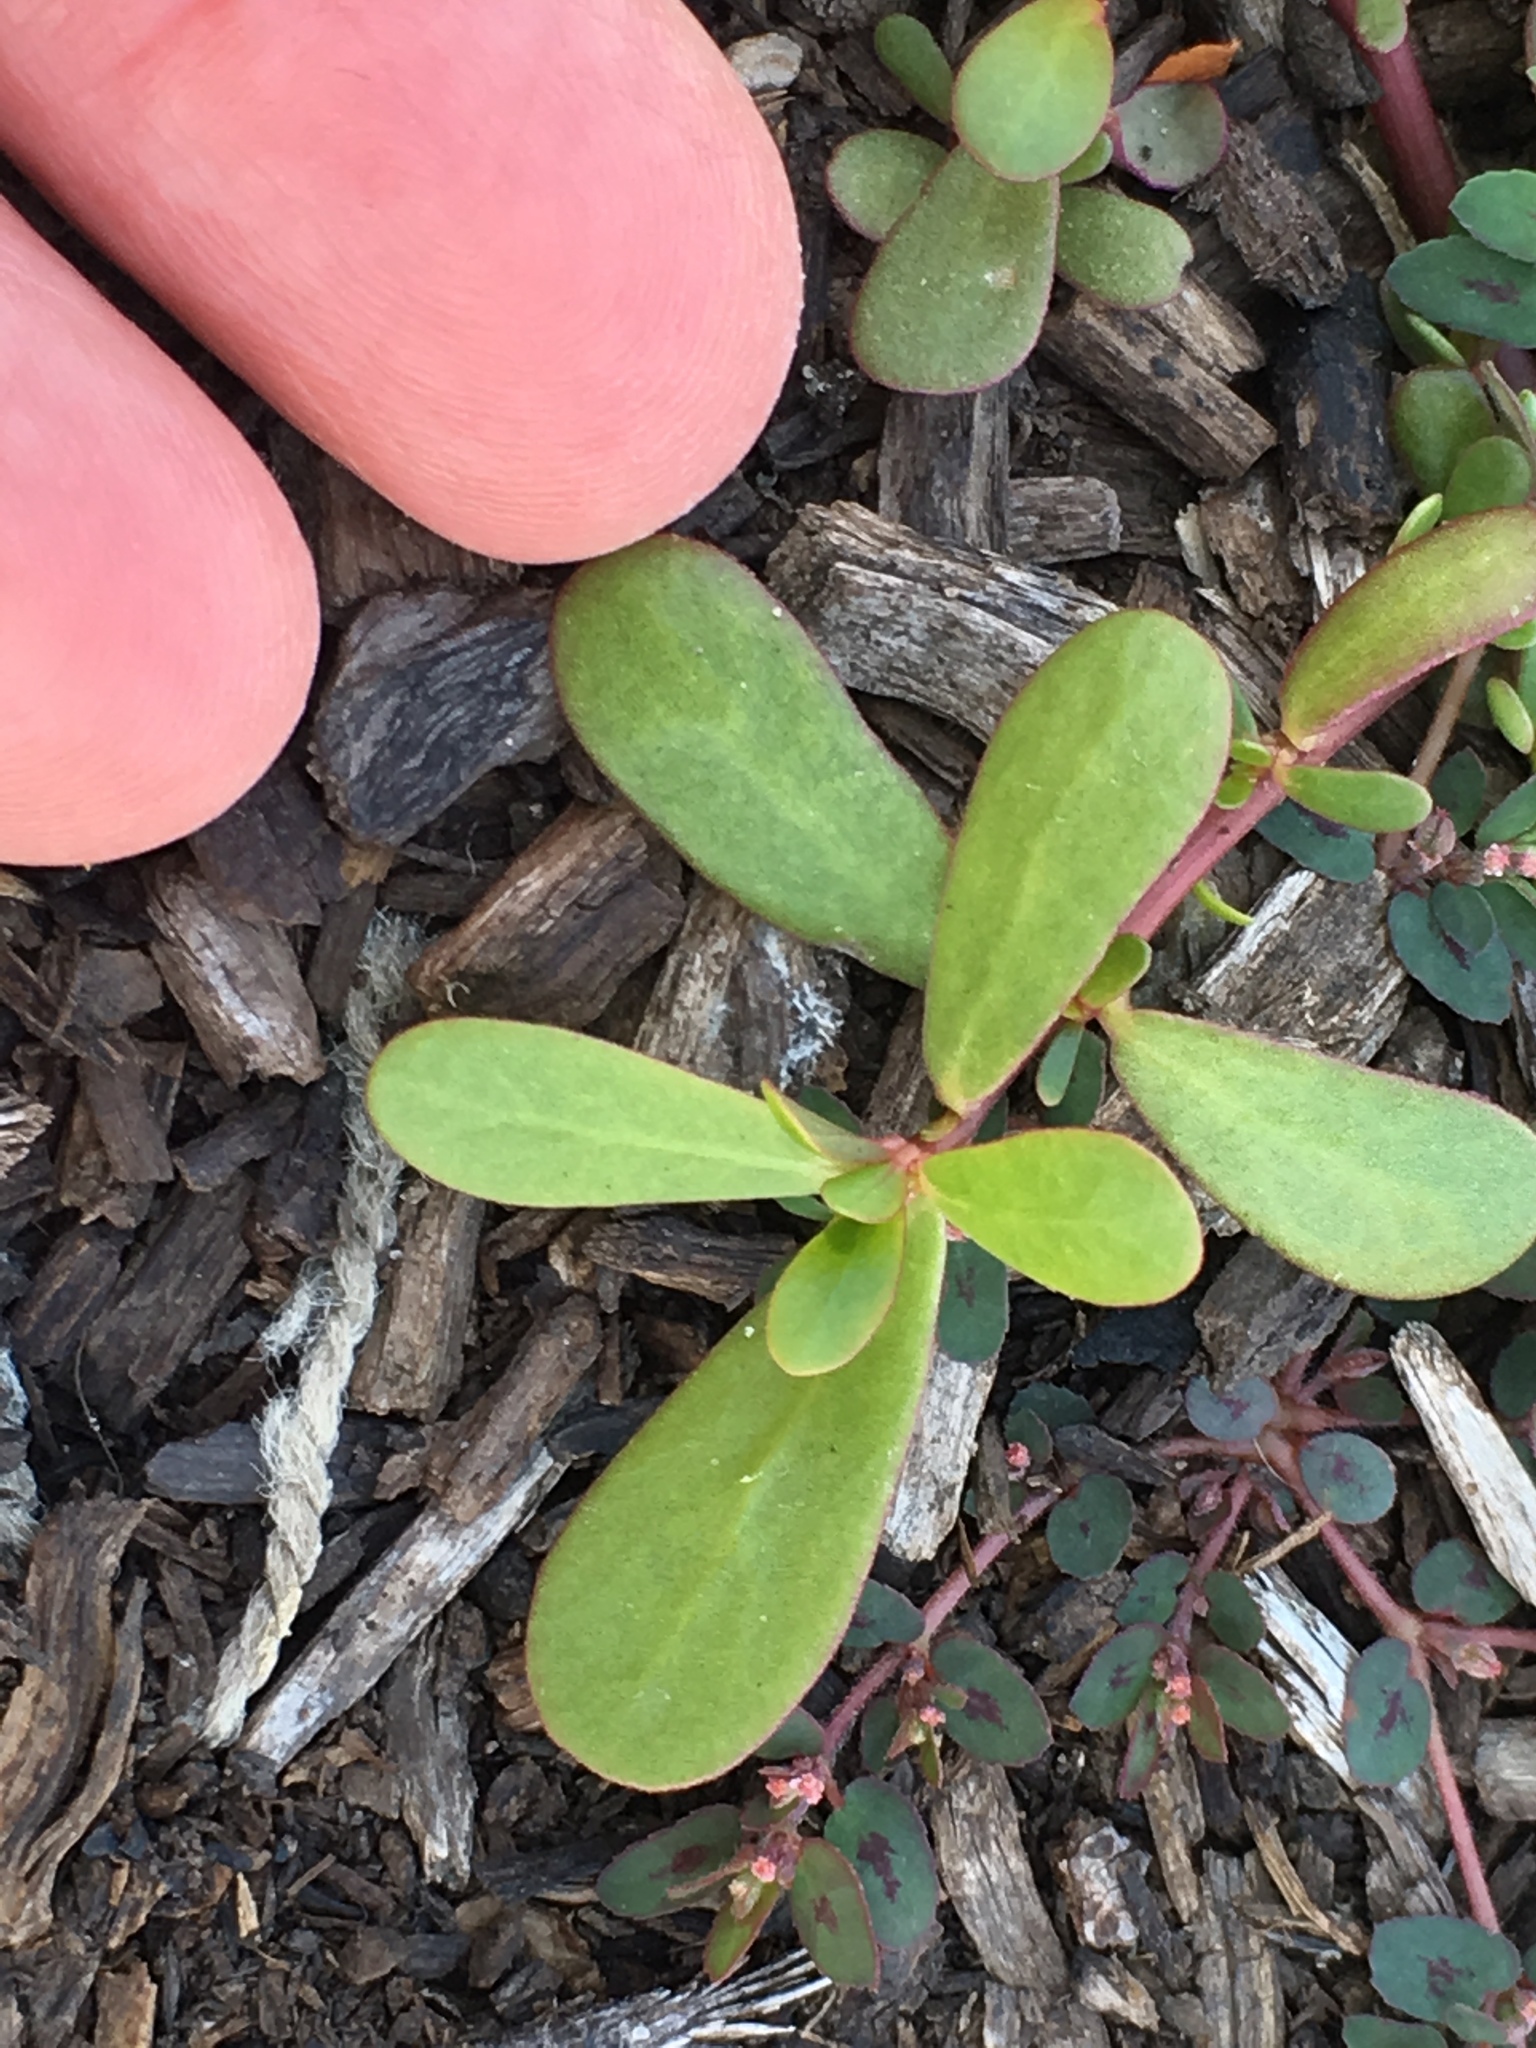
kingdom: Plantae
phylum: Tracheophyta
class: Magnoliopsida
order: Caryophyllales
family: Portulacaceae
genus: Portulaca
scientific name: Portulaca oleracea
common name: Common purslane
